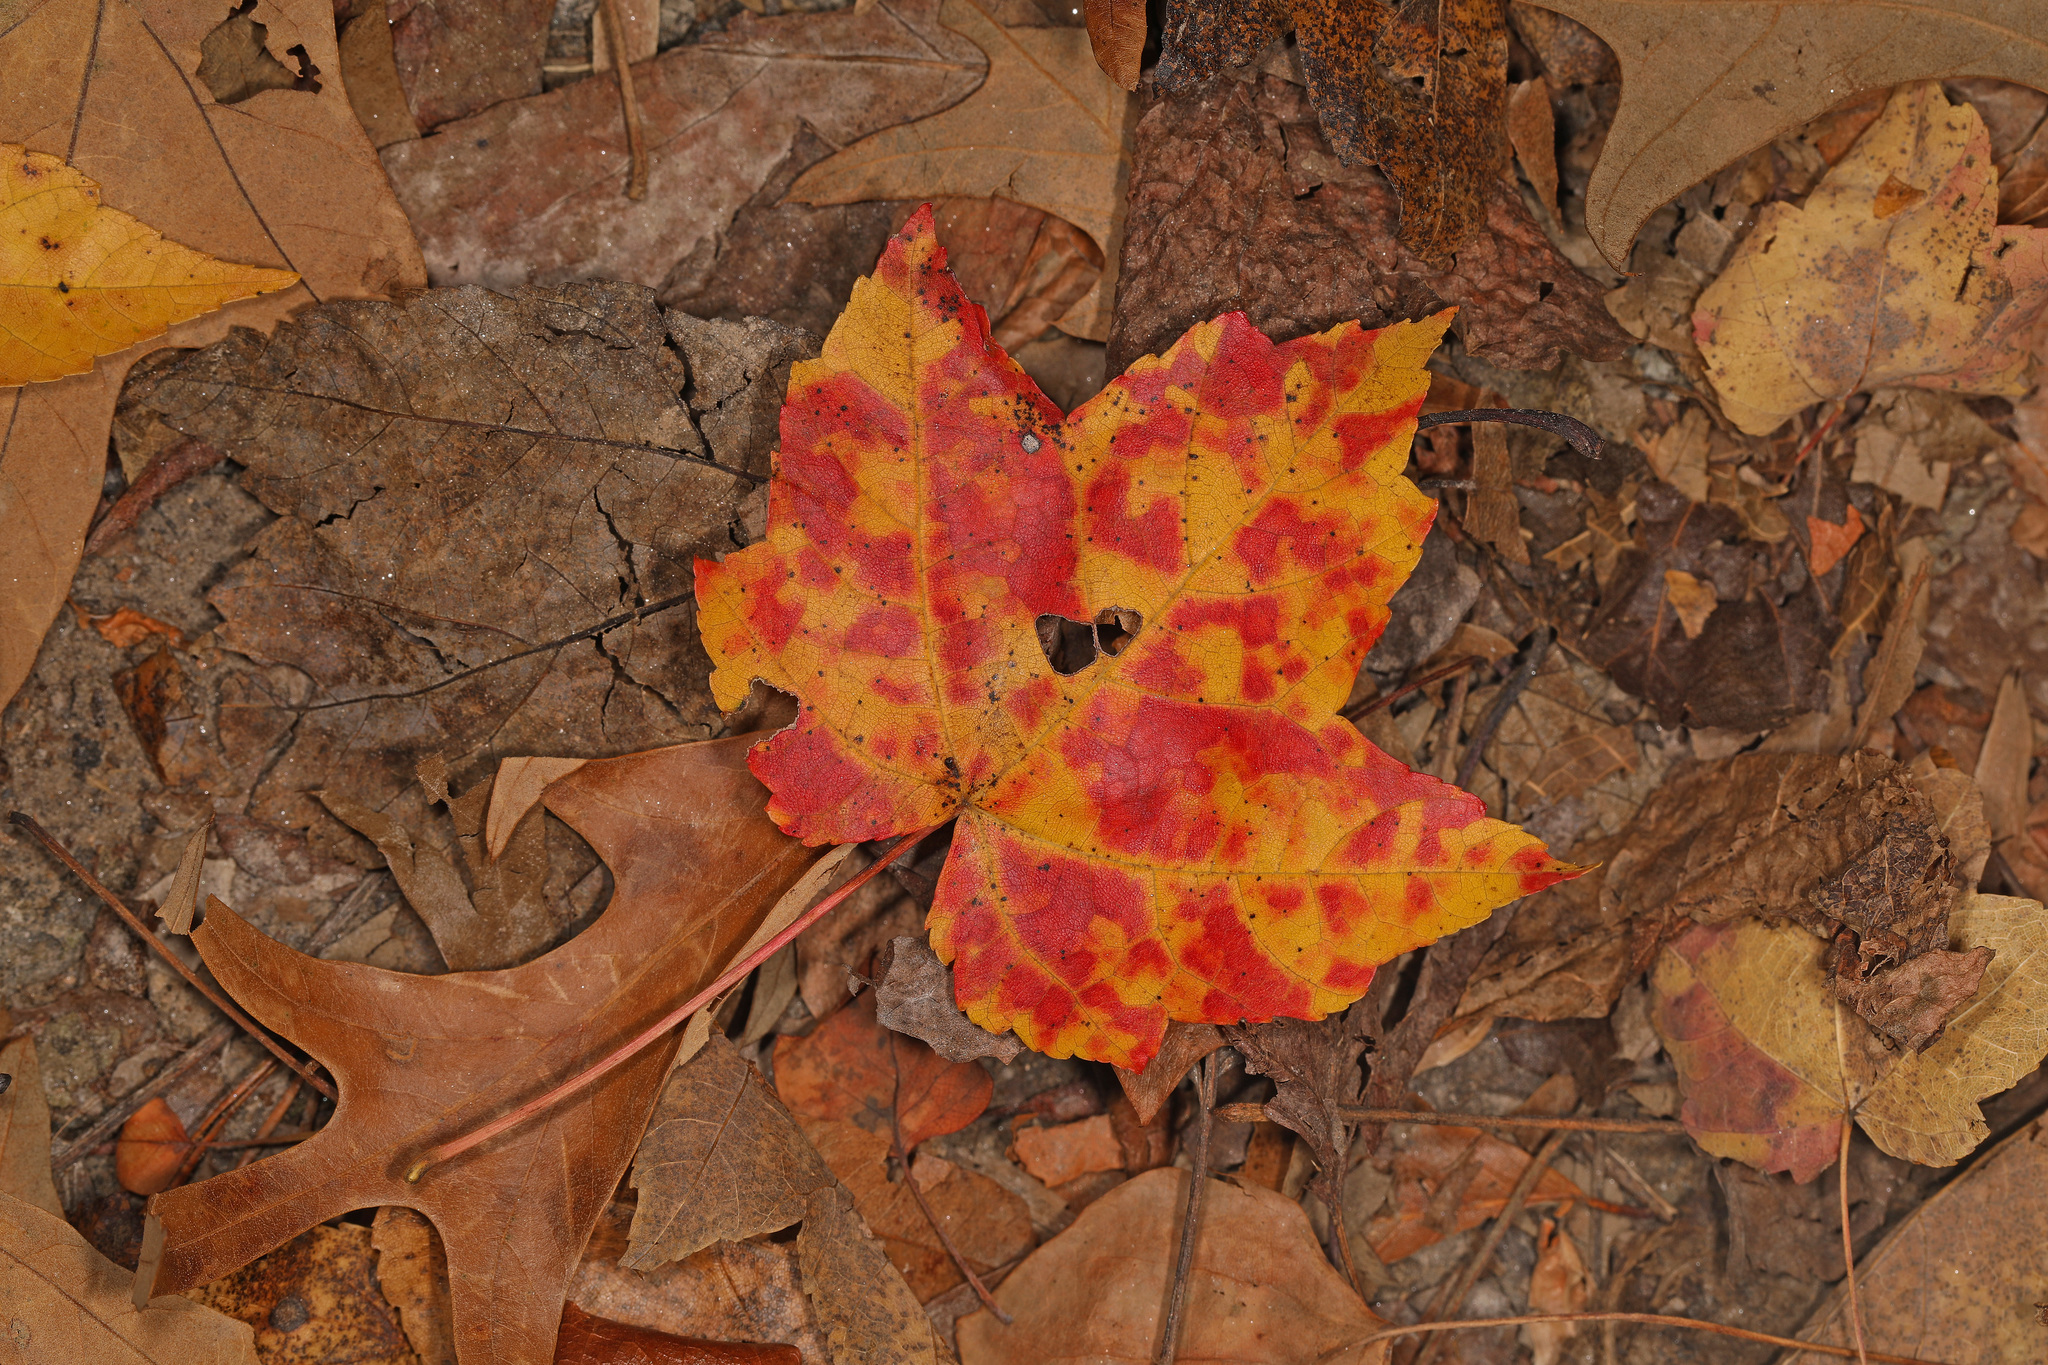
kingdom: Plantae
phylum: Tracheophyta
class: Magnoliopsida
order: Sapindales
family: Sapindaceae
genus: Acer
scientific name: Acer rubrum
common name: Red maple
